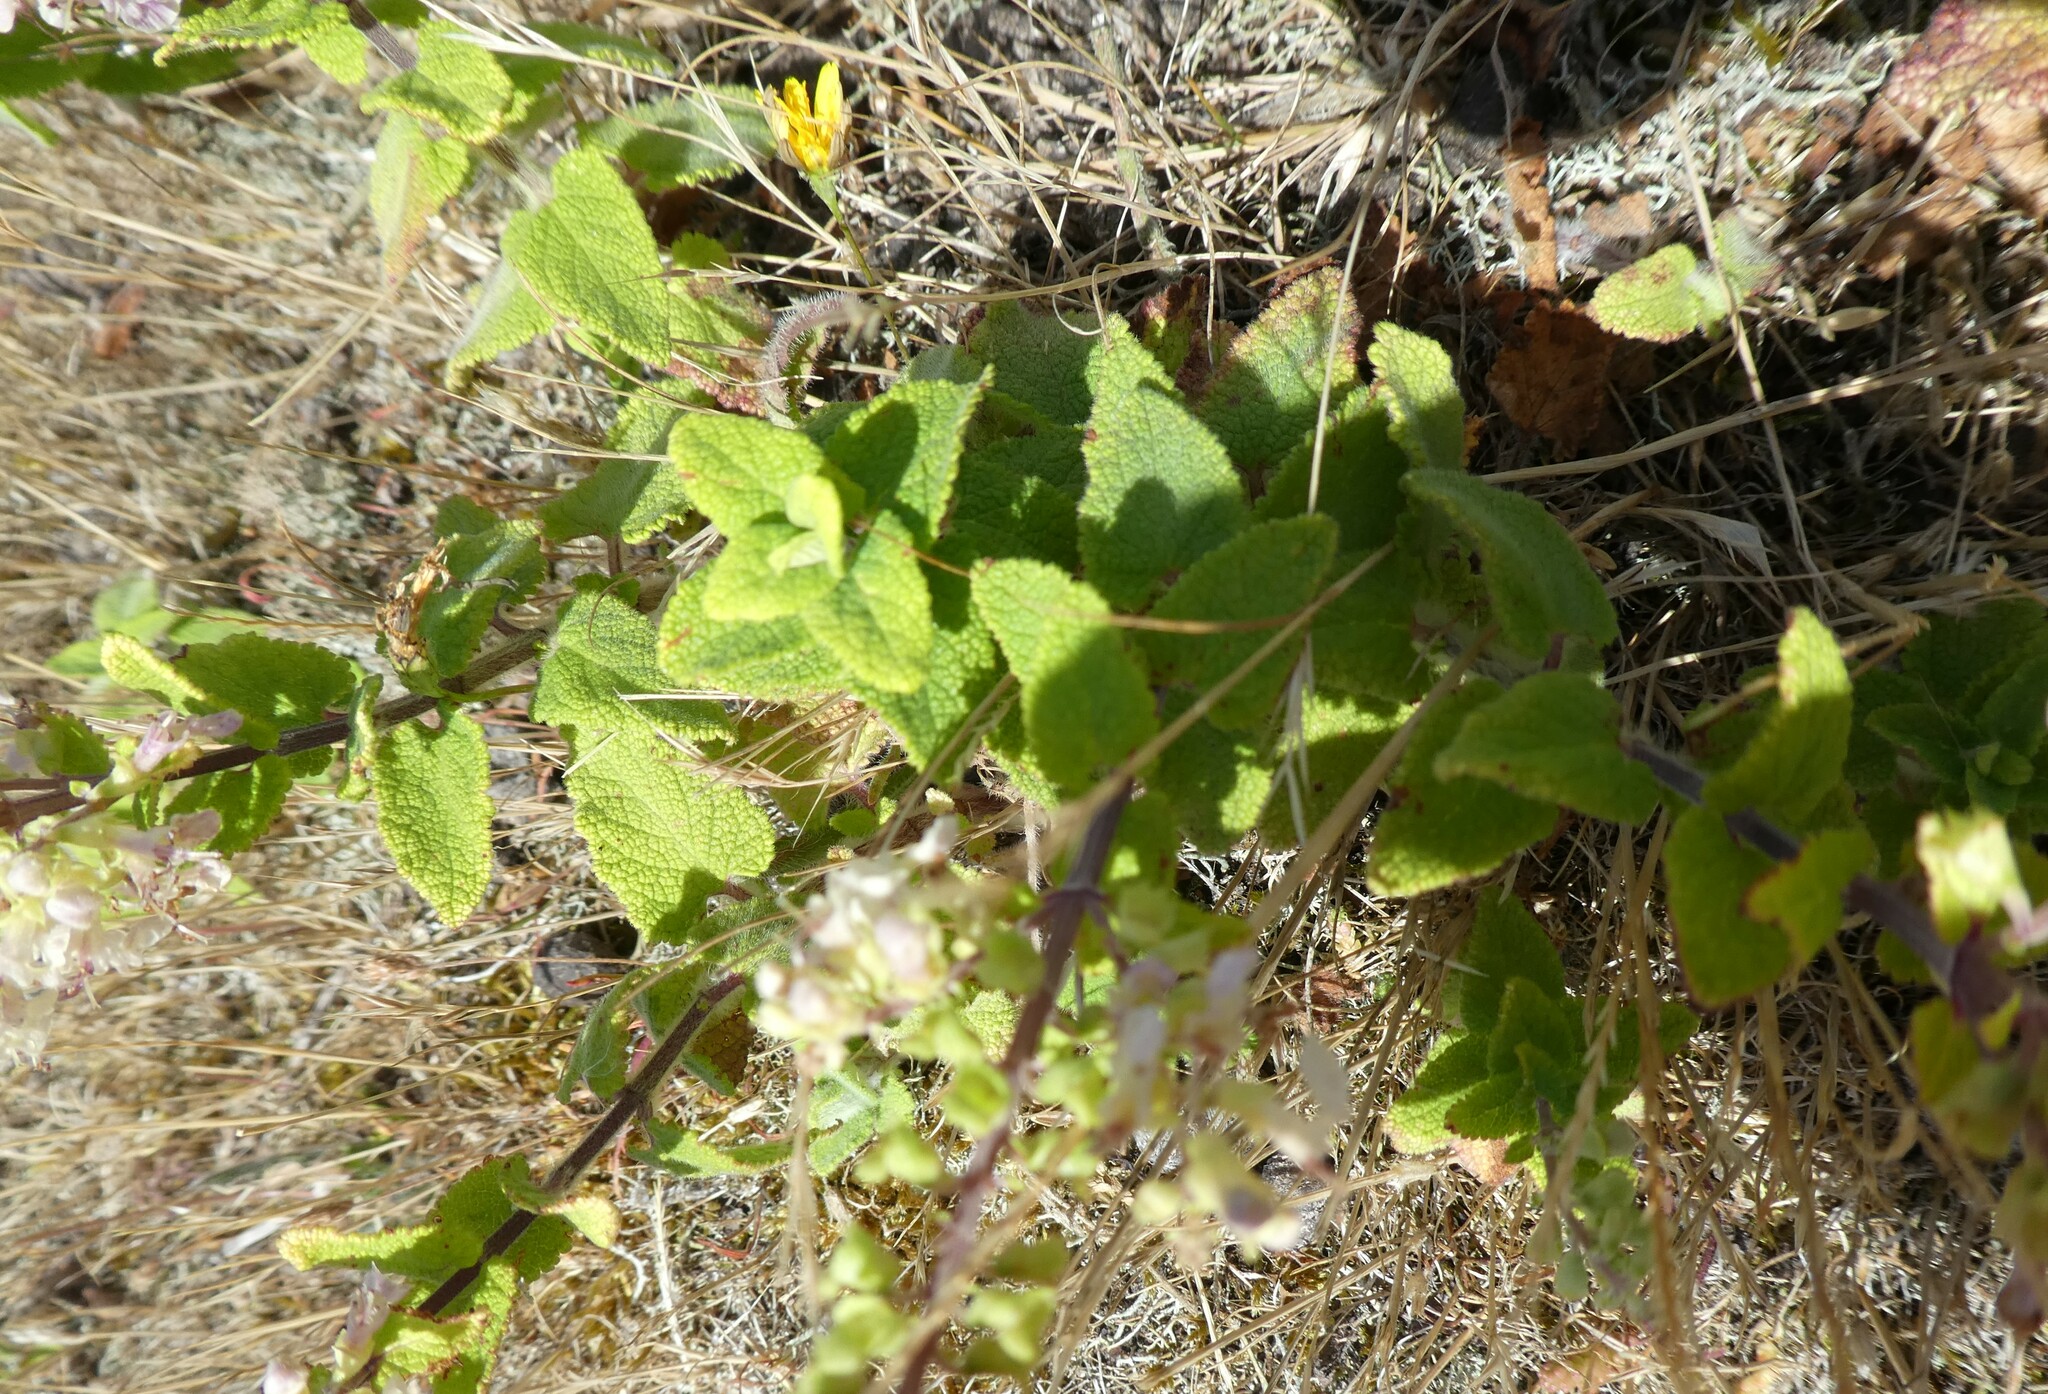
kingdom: Plantae
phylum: Tracheophyta
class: Magnoliopsida
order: Lamiales
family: Lamiaceae
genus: Teucrium
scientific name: Teucrium scorodonia
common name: Woodland germander
